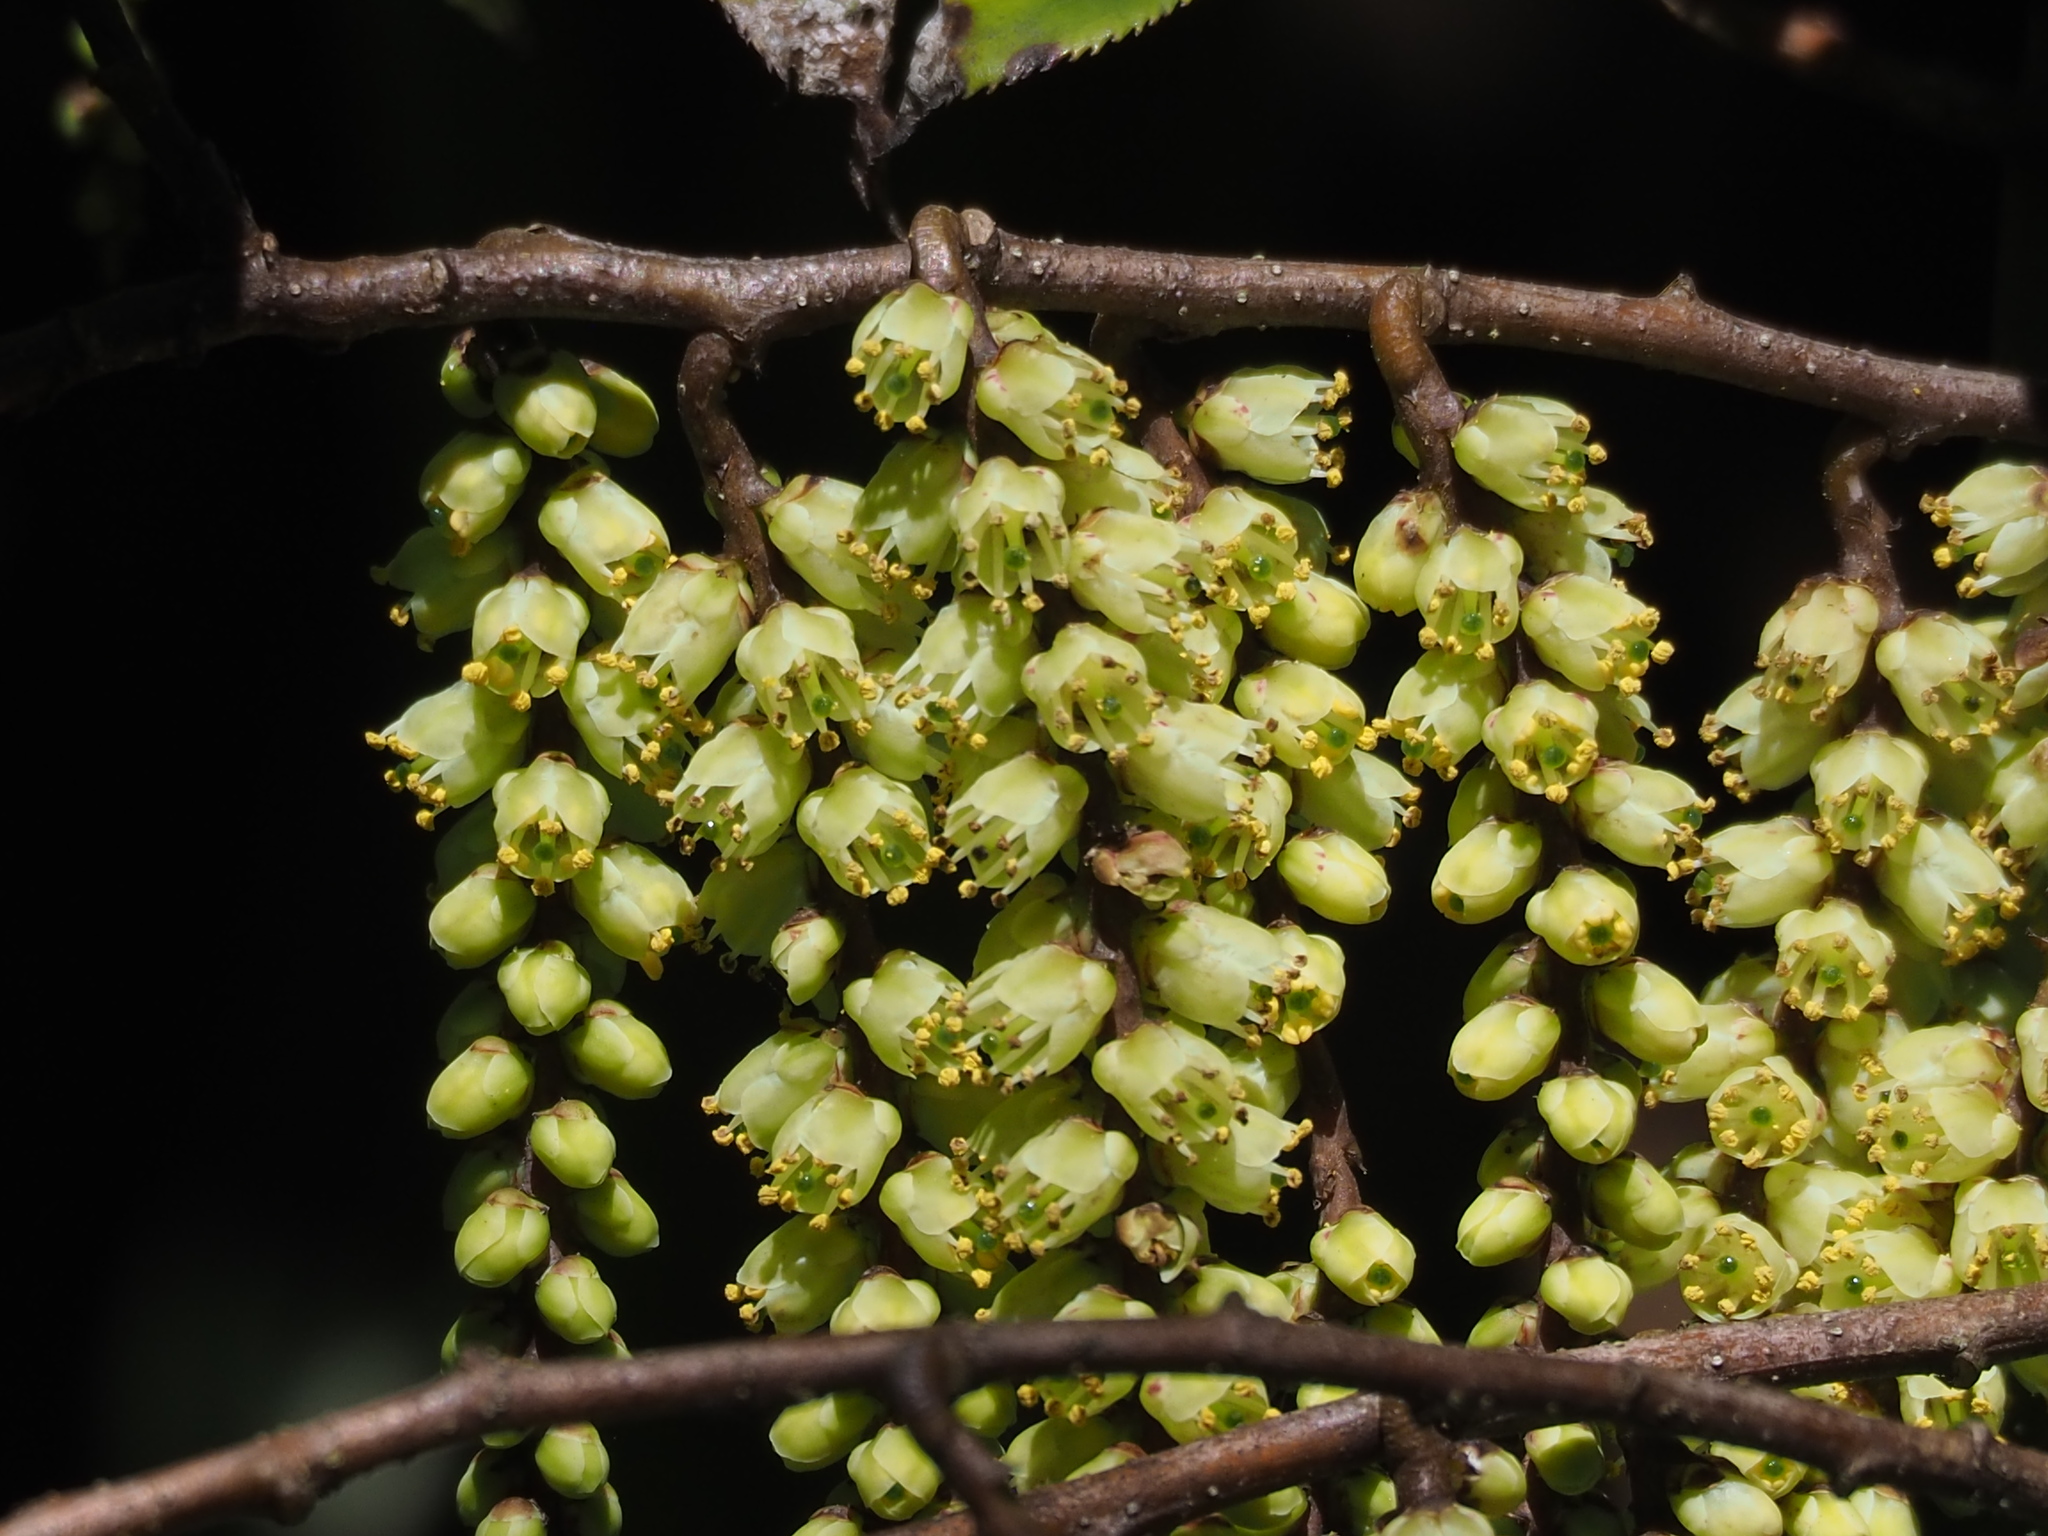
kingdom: Plantae
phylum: Tracheophyta
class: Magnoliopsida
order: Crossosomatales
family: Stachyuraceae
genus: Stachyurus
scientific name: Stachyurus himalaicus
